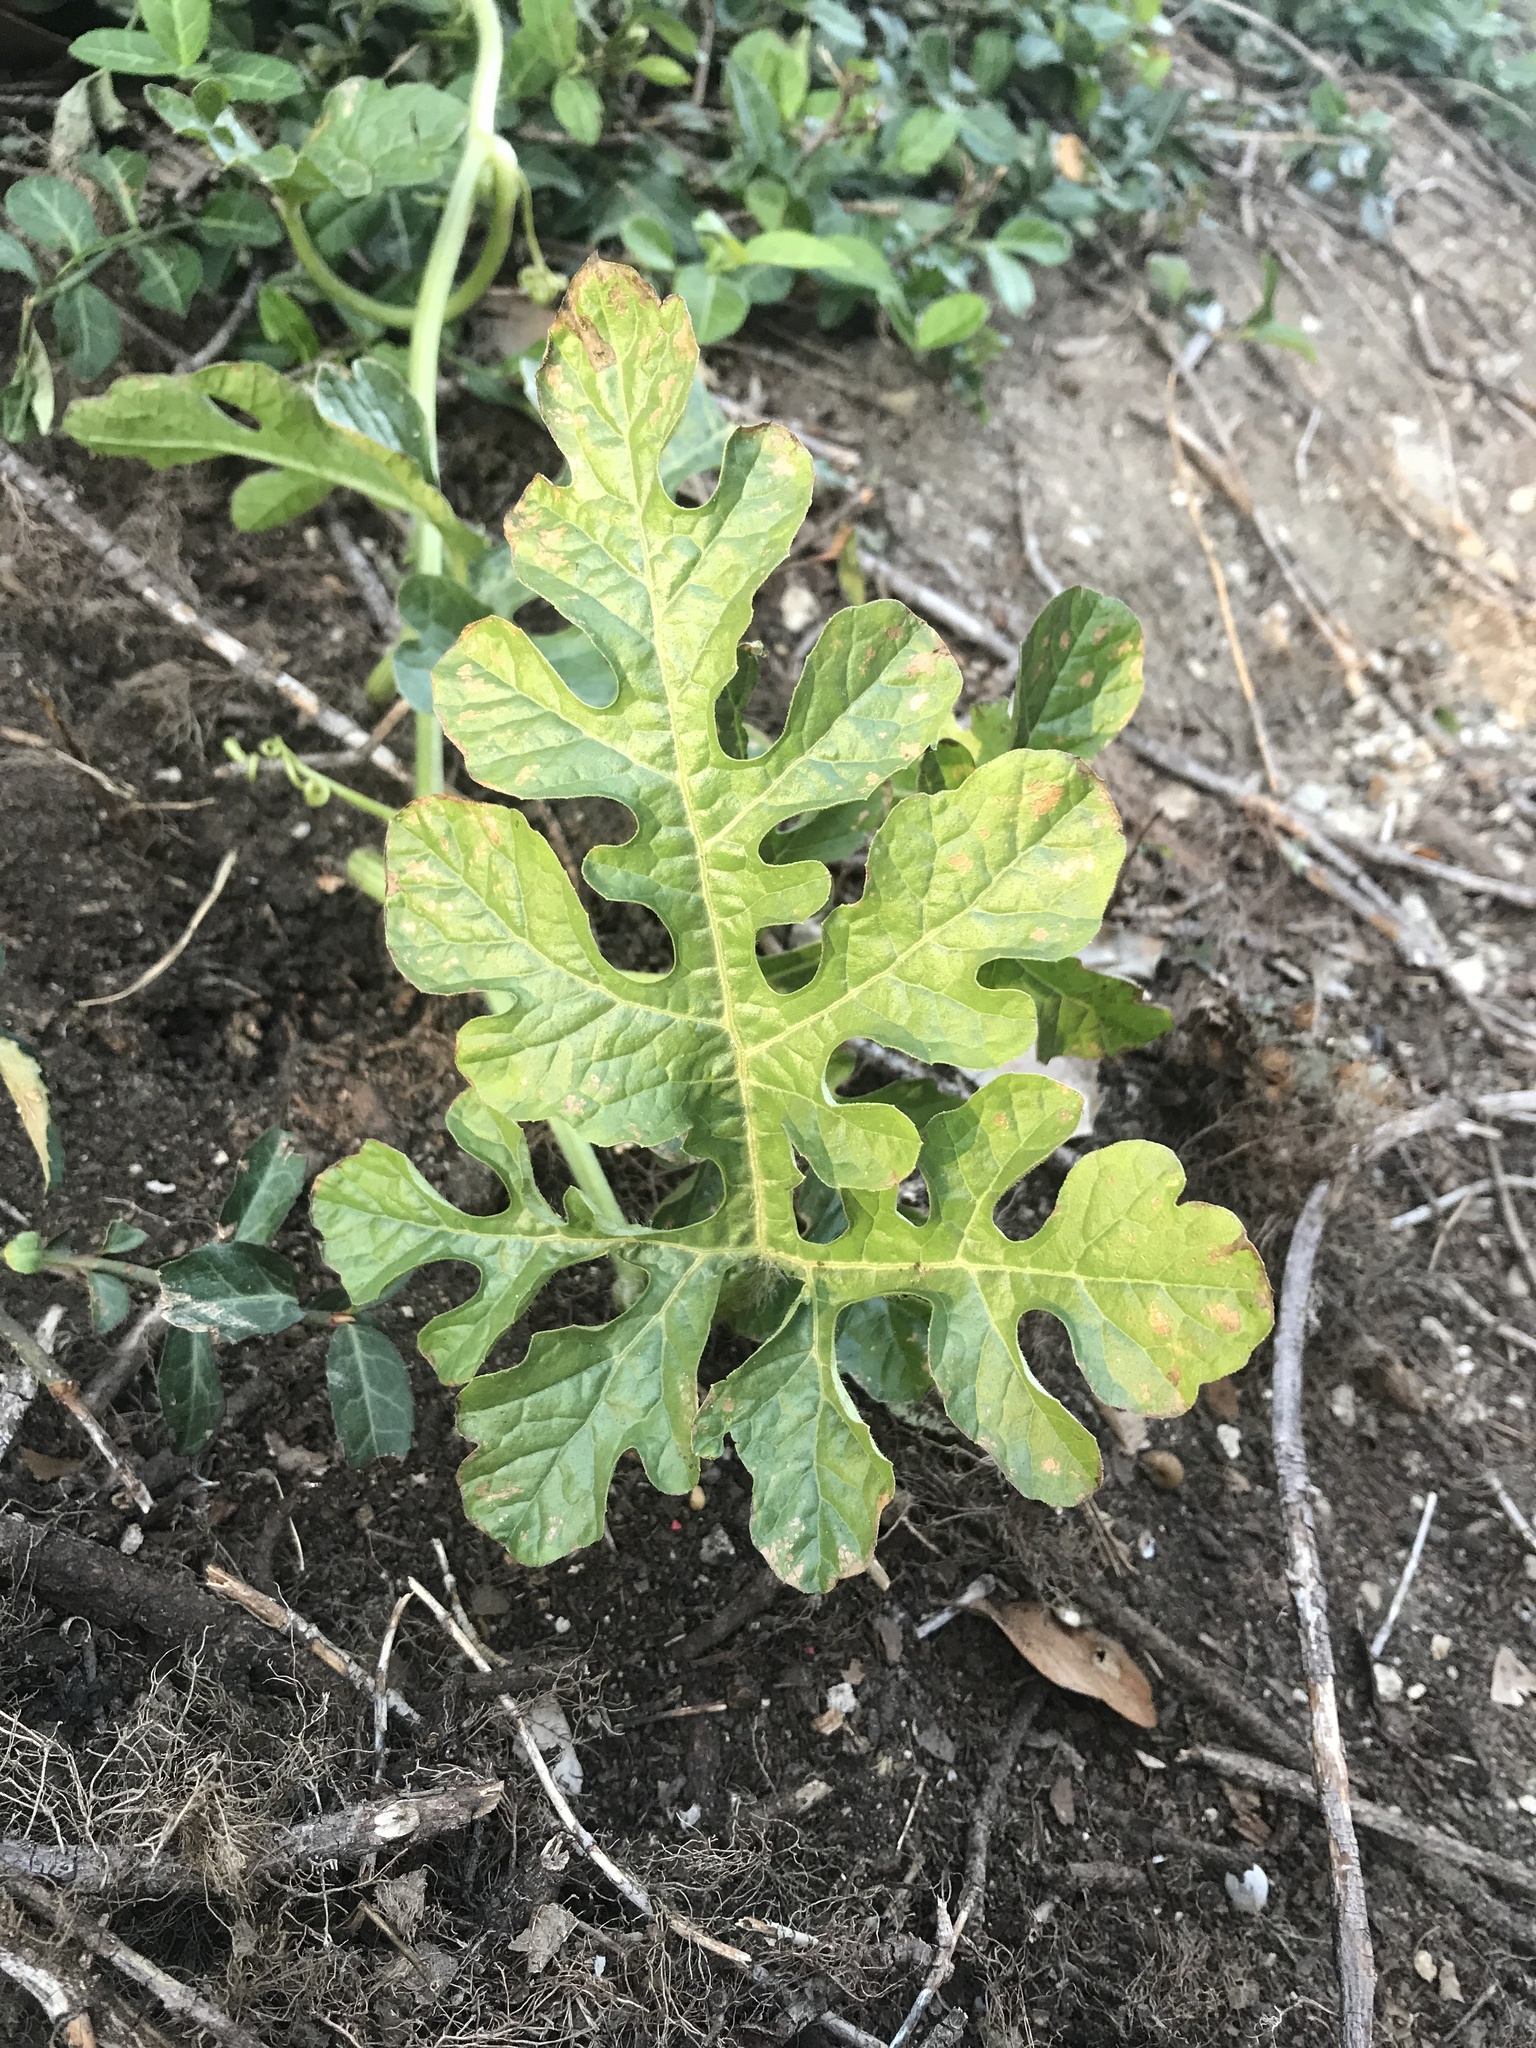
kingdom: Plantae
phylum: Tracheophyta
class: Magnoliopsida
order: Cucurbitales
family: Cucurbitaceae
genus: Citrullus
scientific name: Citrullus lanatus
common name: Watermelon
